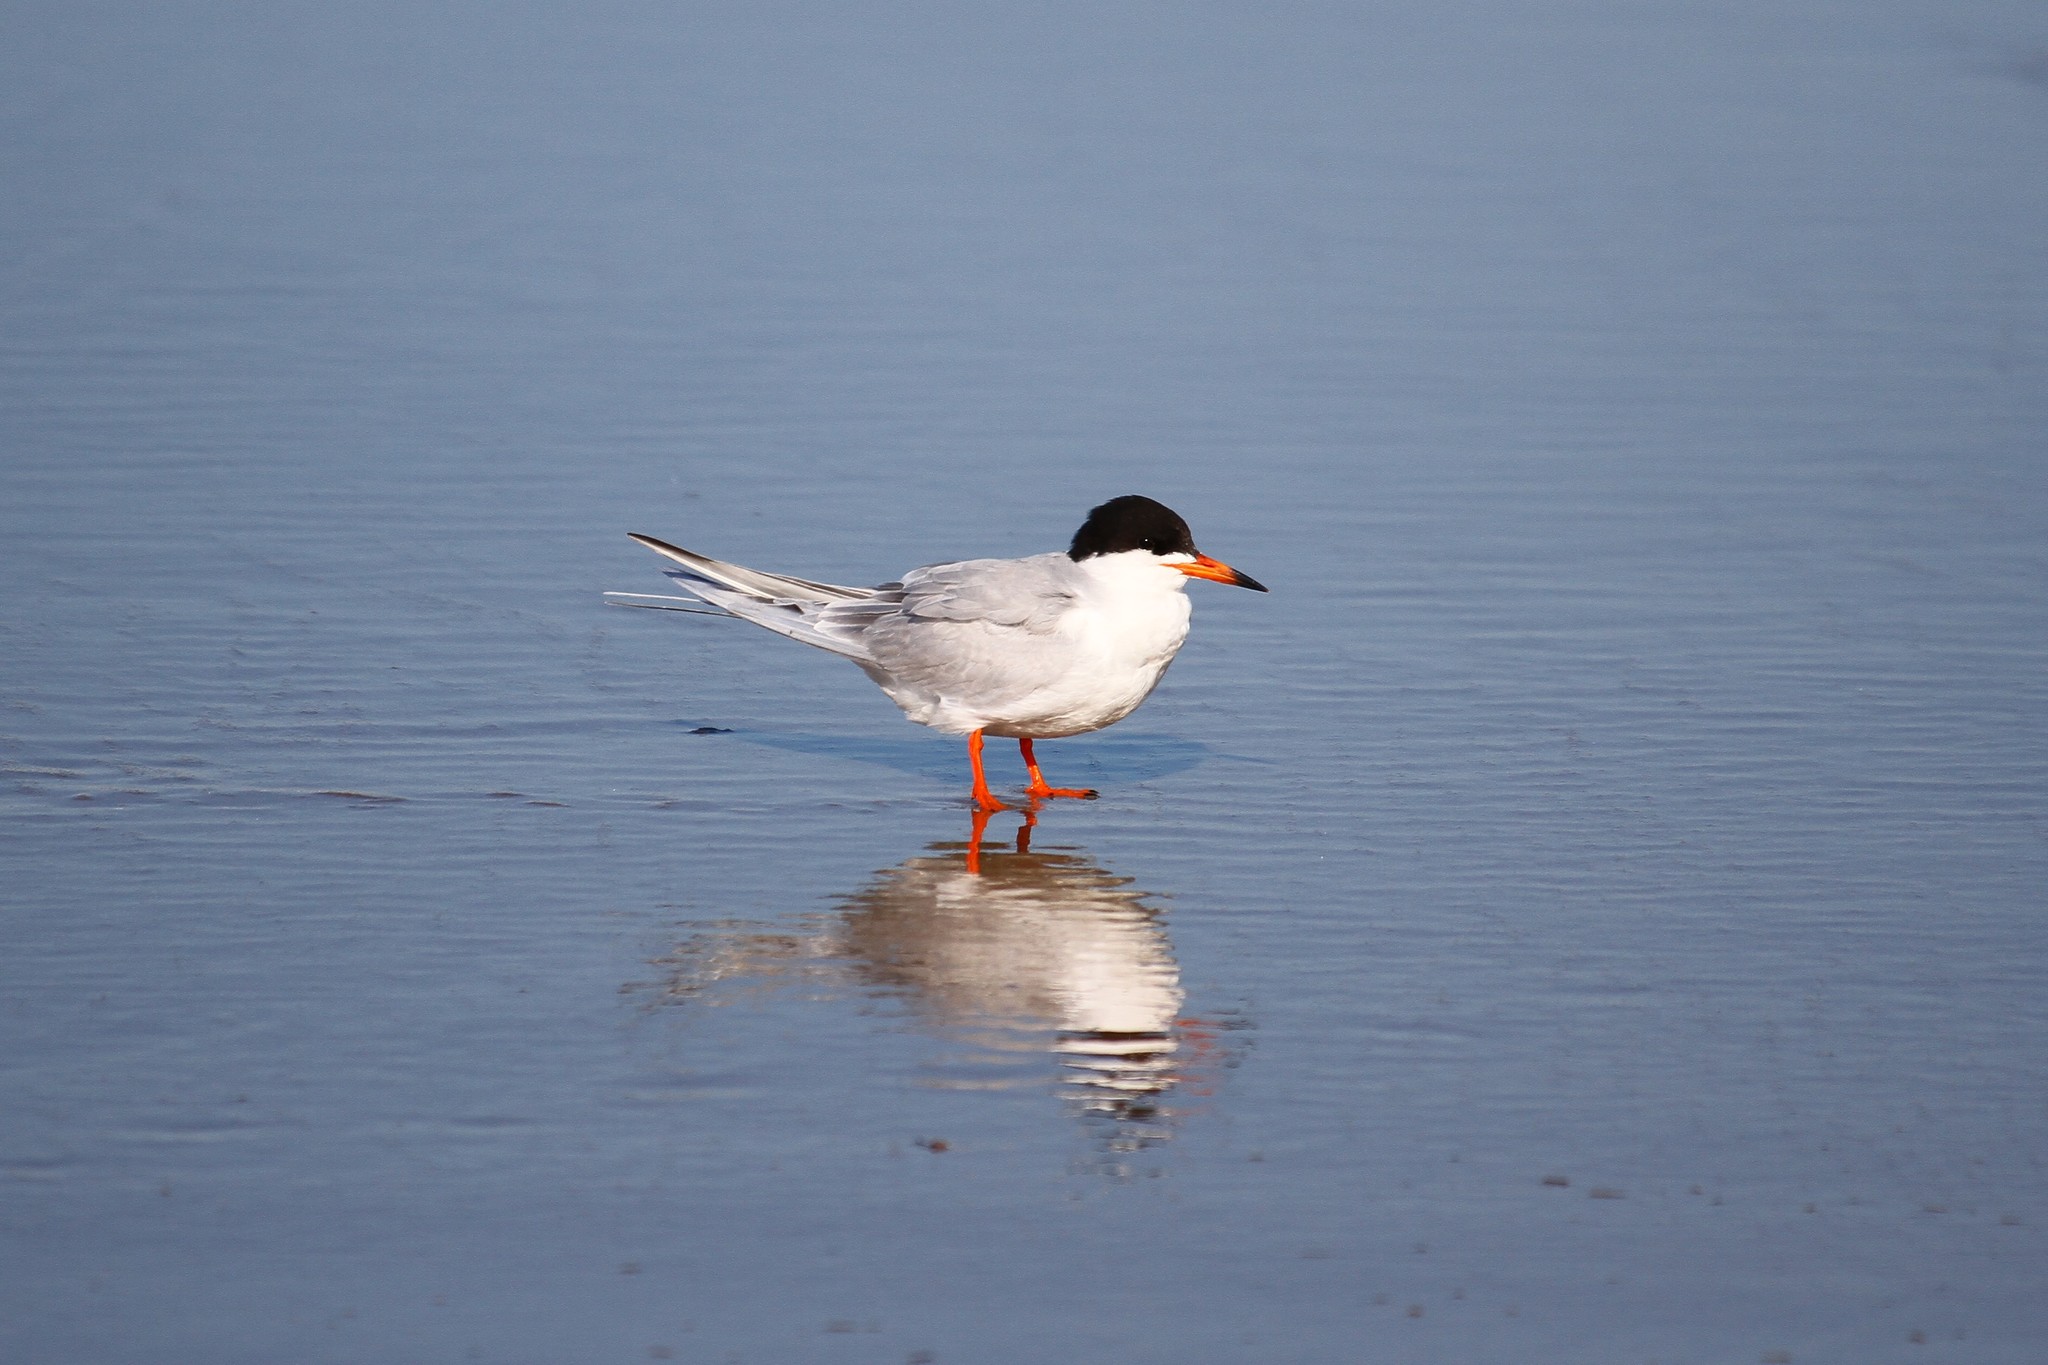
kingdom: Animalia
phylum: Chordata
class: Aves
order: Charadriiformes
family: Laridae
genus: Sterna
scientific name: Sterna forsteri
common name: Forster's tern
